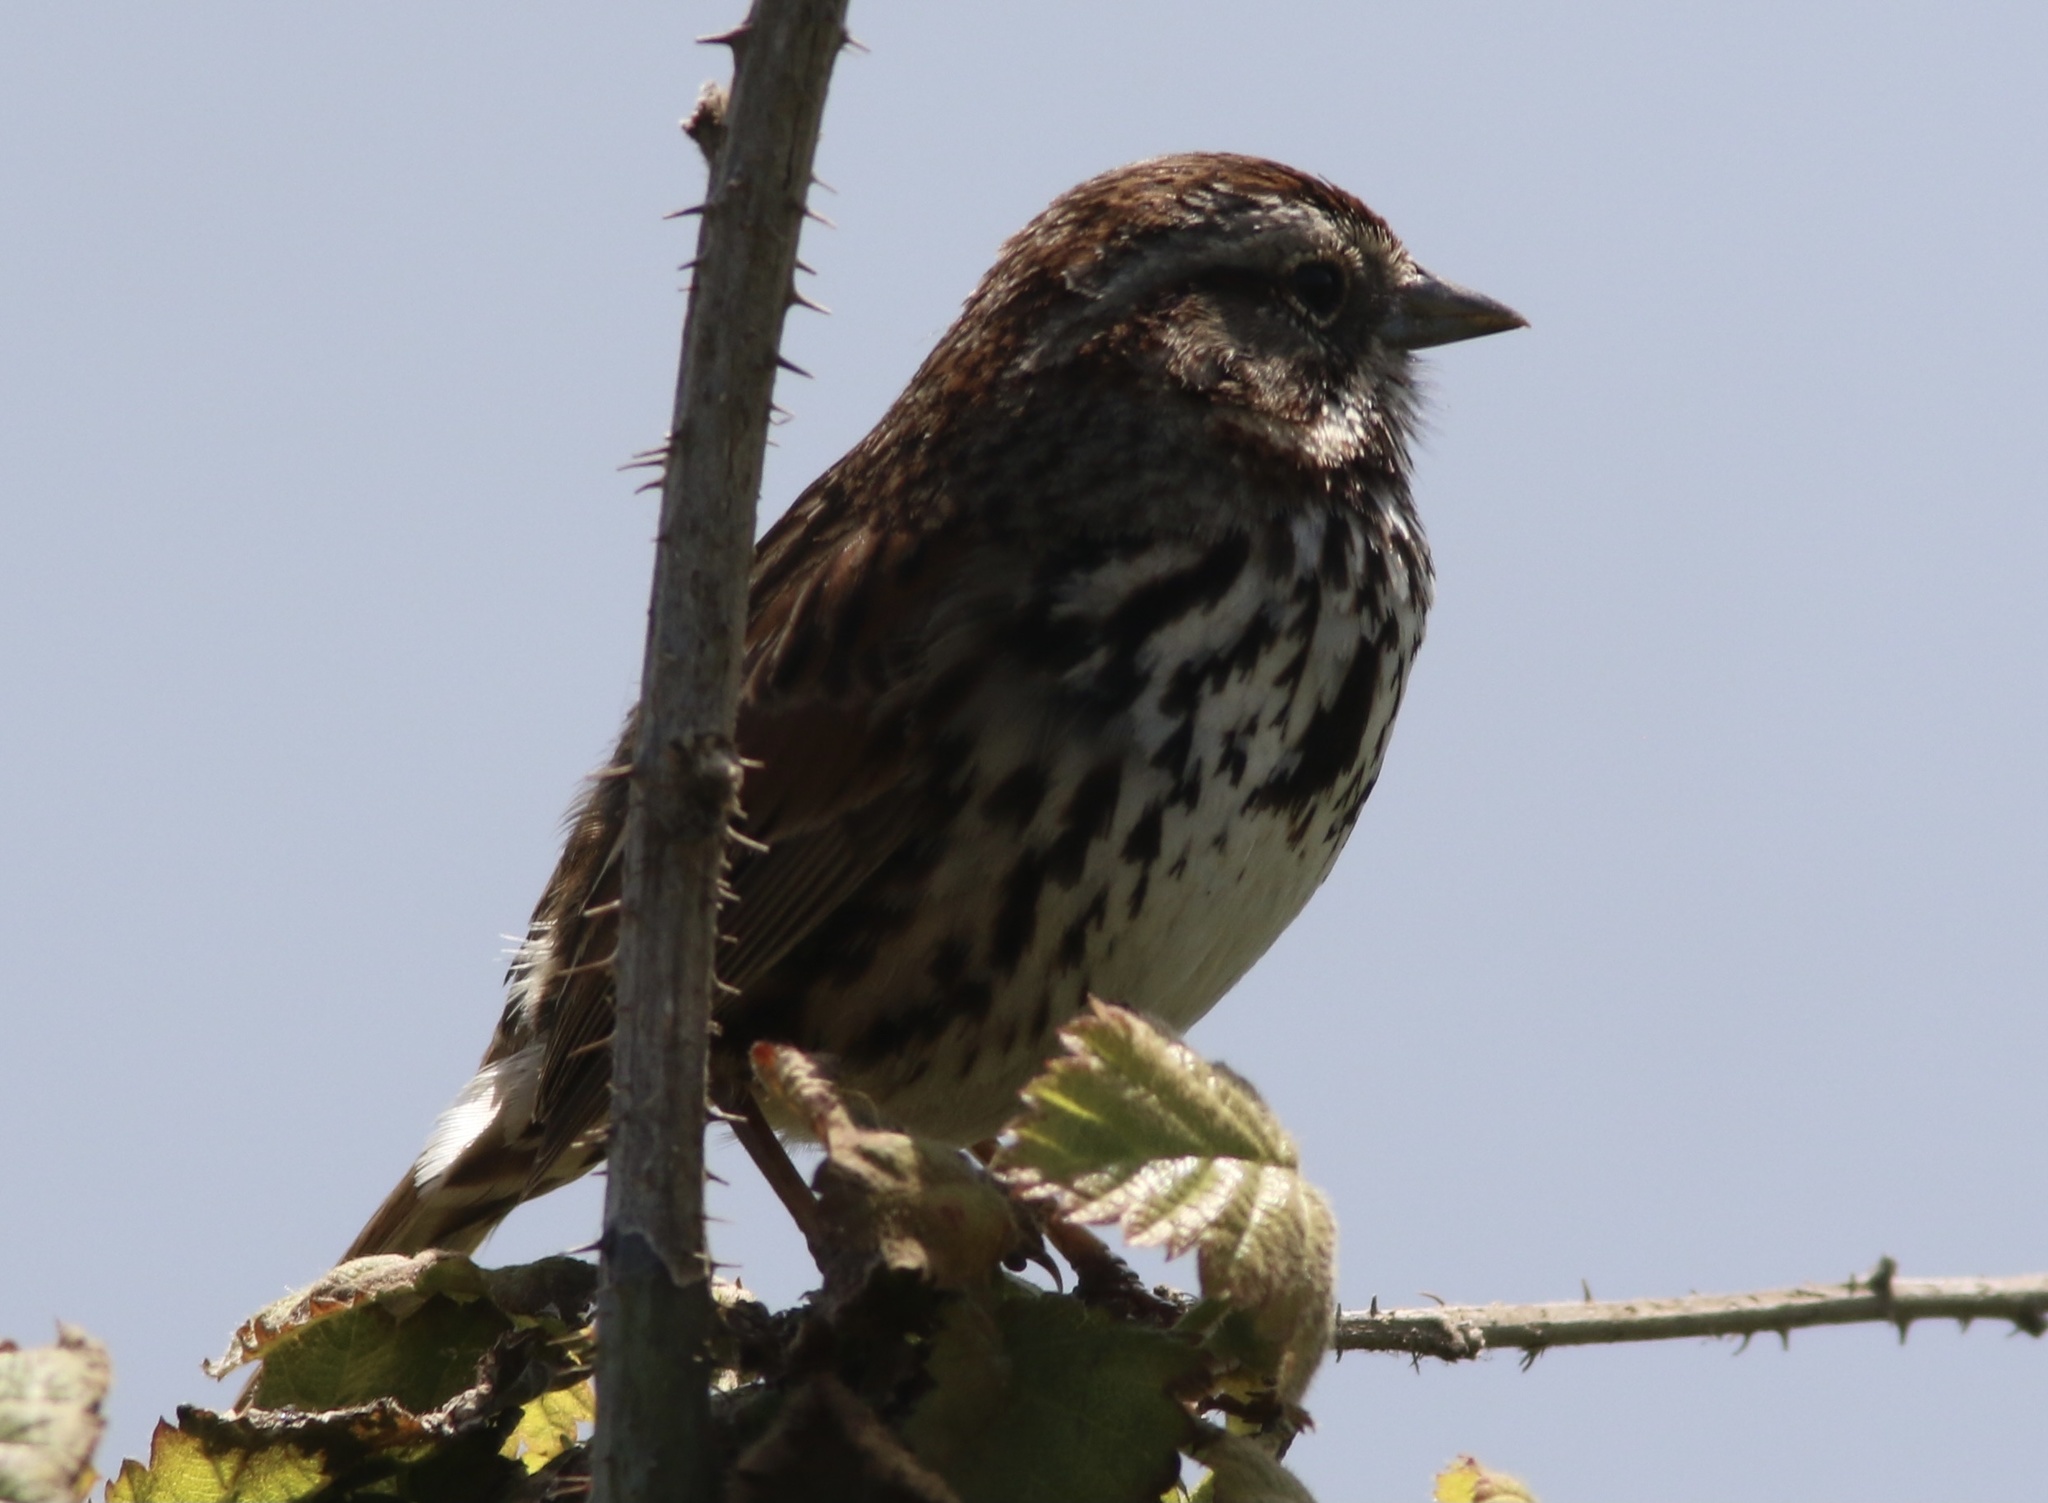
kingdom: Animalia
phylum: Chordata
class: Aves
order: Passeriformes
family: Passerellidae
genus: Melospiza
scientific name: Melospiza melodia
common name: Song sparrow
